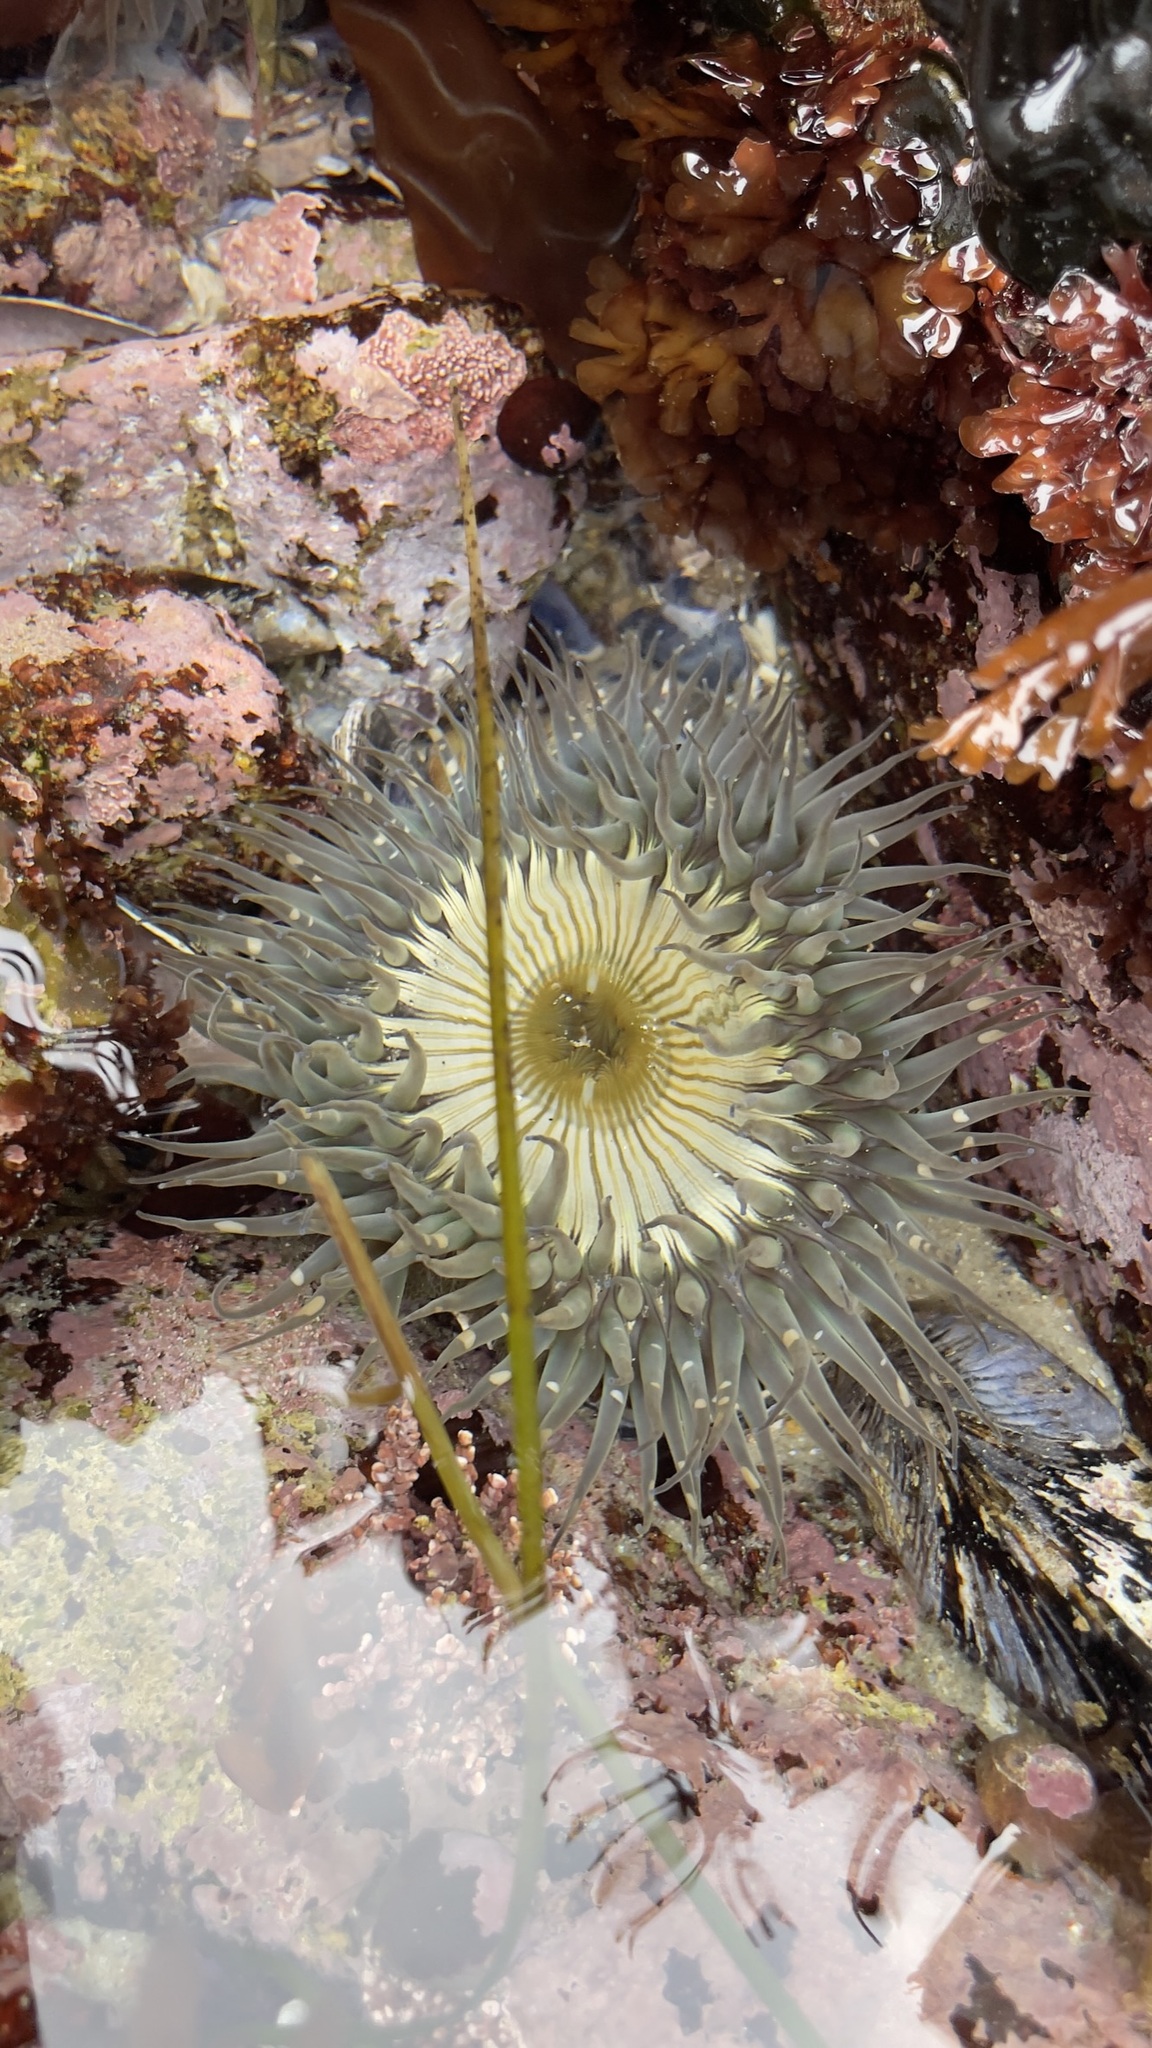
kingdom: Animalia
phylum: Cnidaria
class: Anthozoa
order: Actiniaria
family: Actiniidae
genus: Anthopleura
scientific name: Anthopleura sola
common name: Sun anemone
